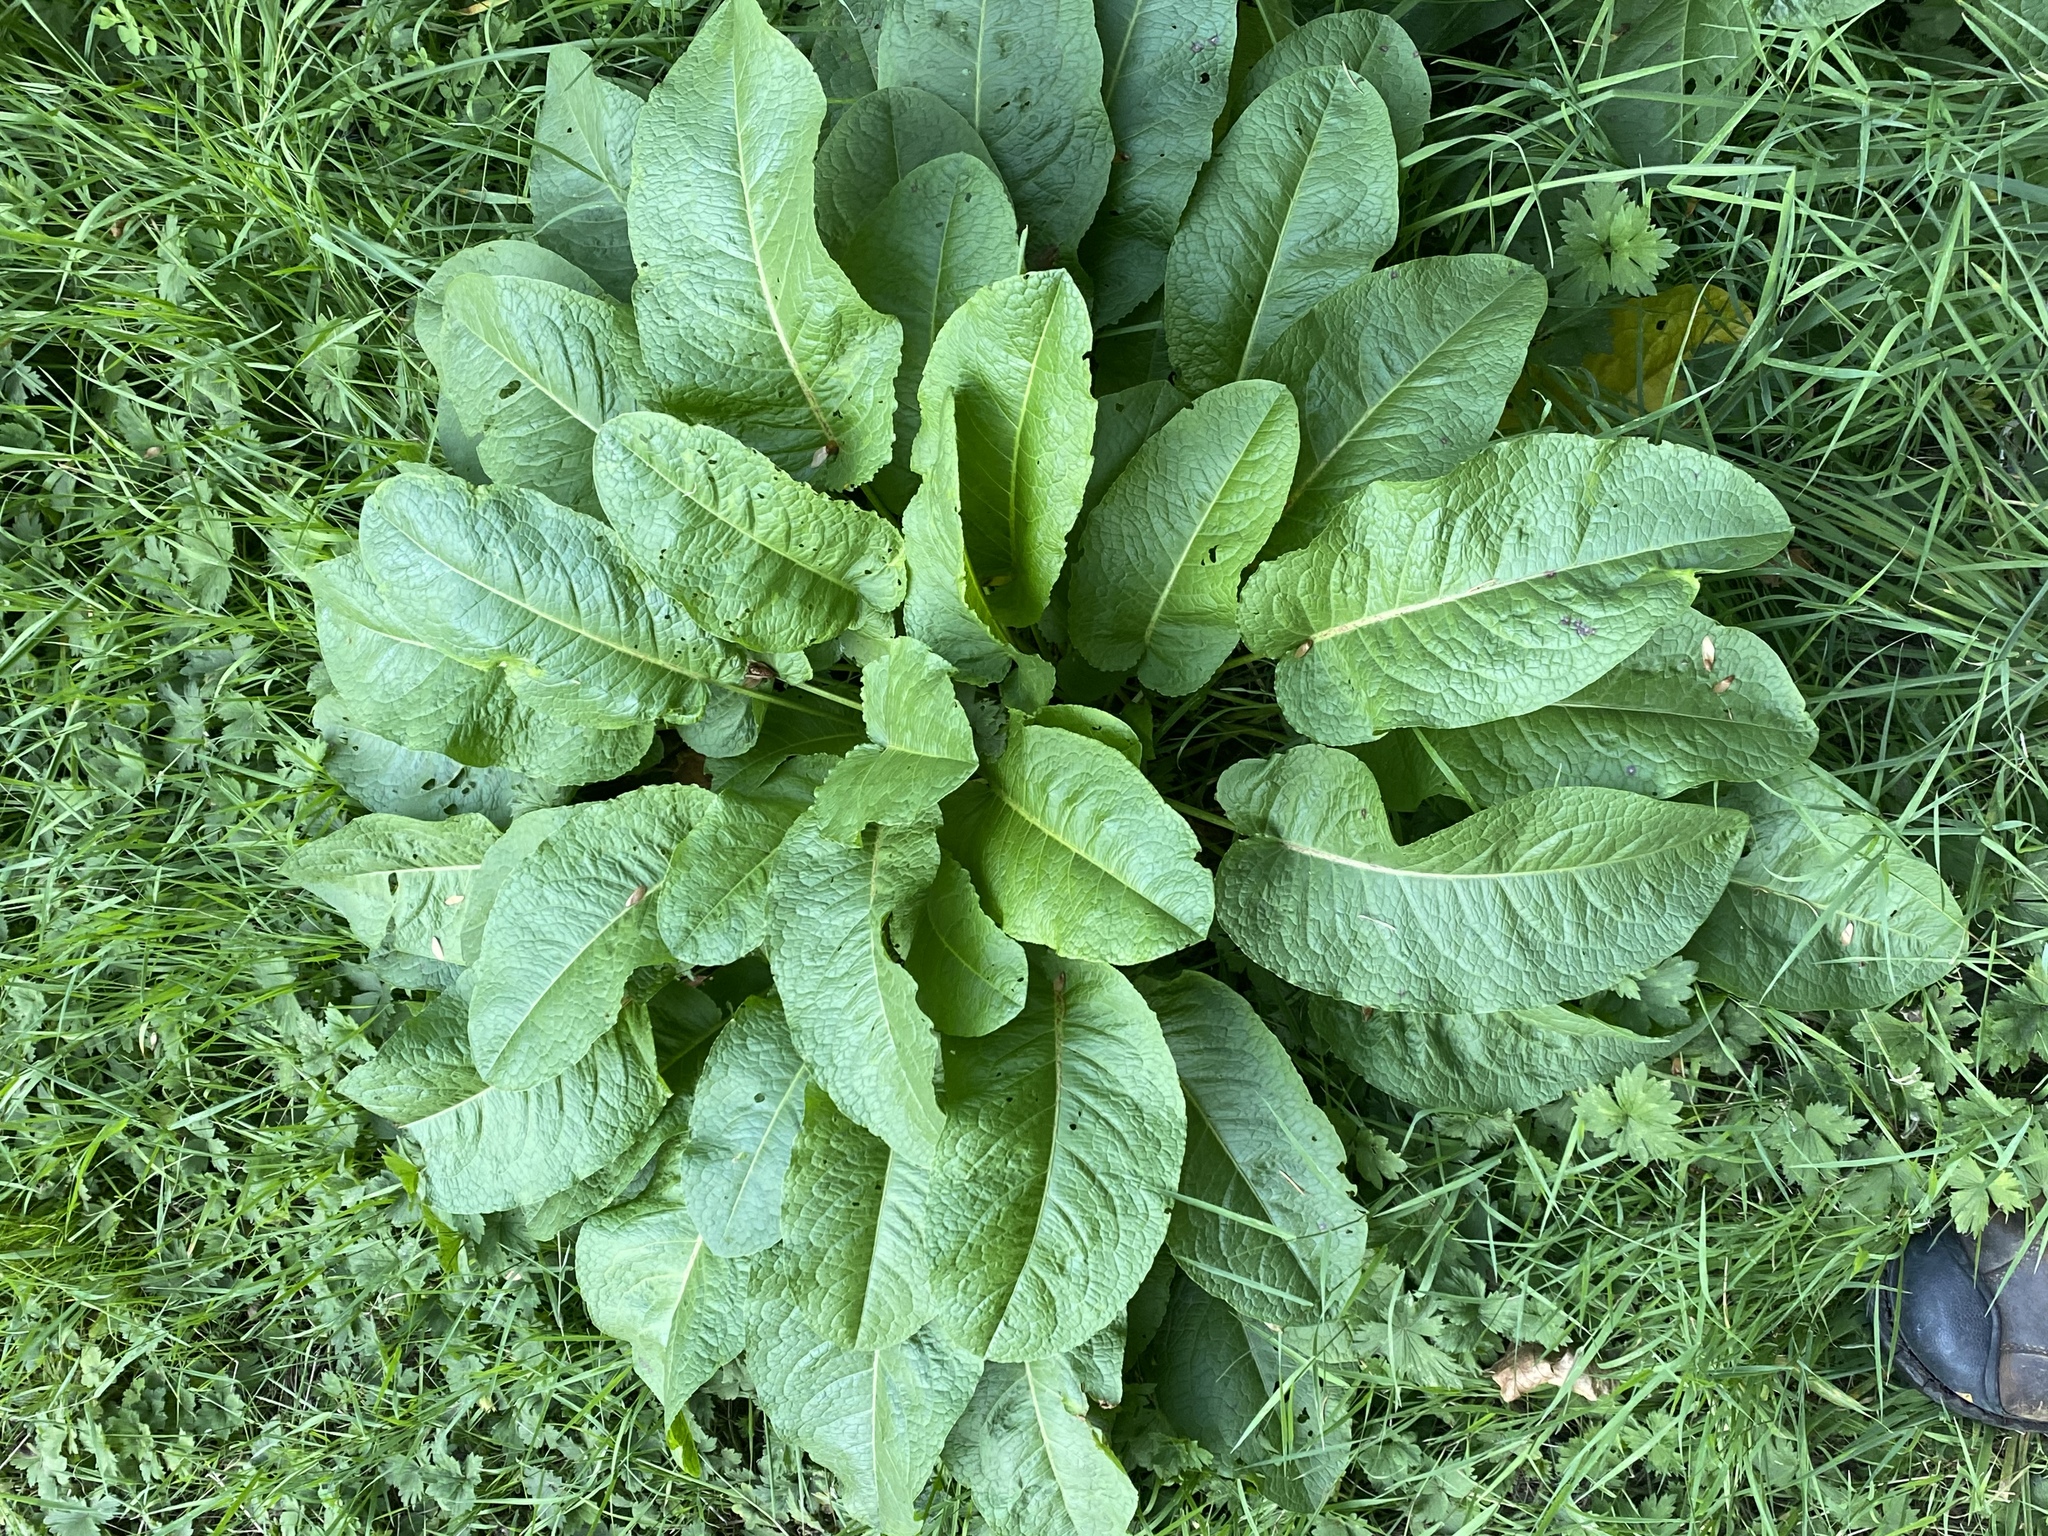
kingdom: Plantae
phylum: Tracheophyta
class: Magnoliopsida
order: Caryophyllales
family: Polygonaceae
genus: Rumex
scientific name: Rumex obtusifolius
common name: Bitter dock
